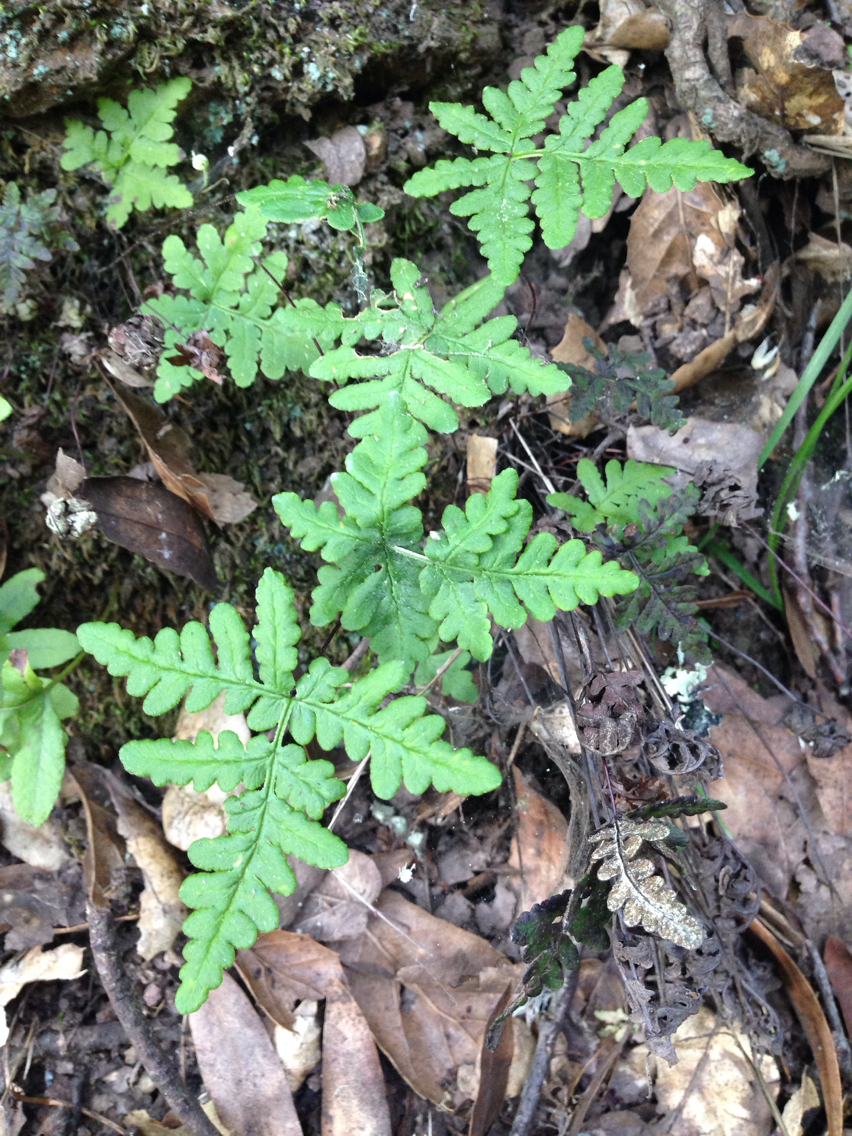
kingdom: Plantae
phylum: Tracheophyta
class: Polypodiopsida
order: Polypodiales
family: Pteridaceae
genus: Pentagramma
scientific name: Pentagramma triangularis
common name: Gold fern
